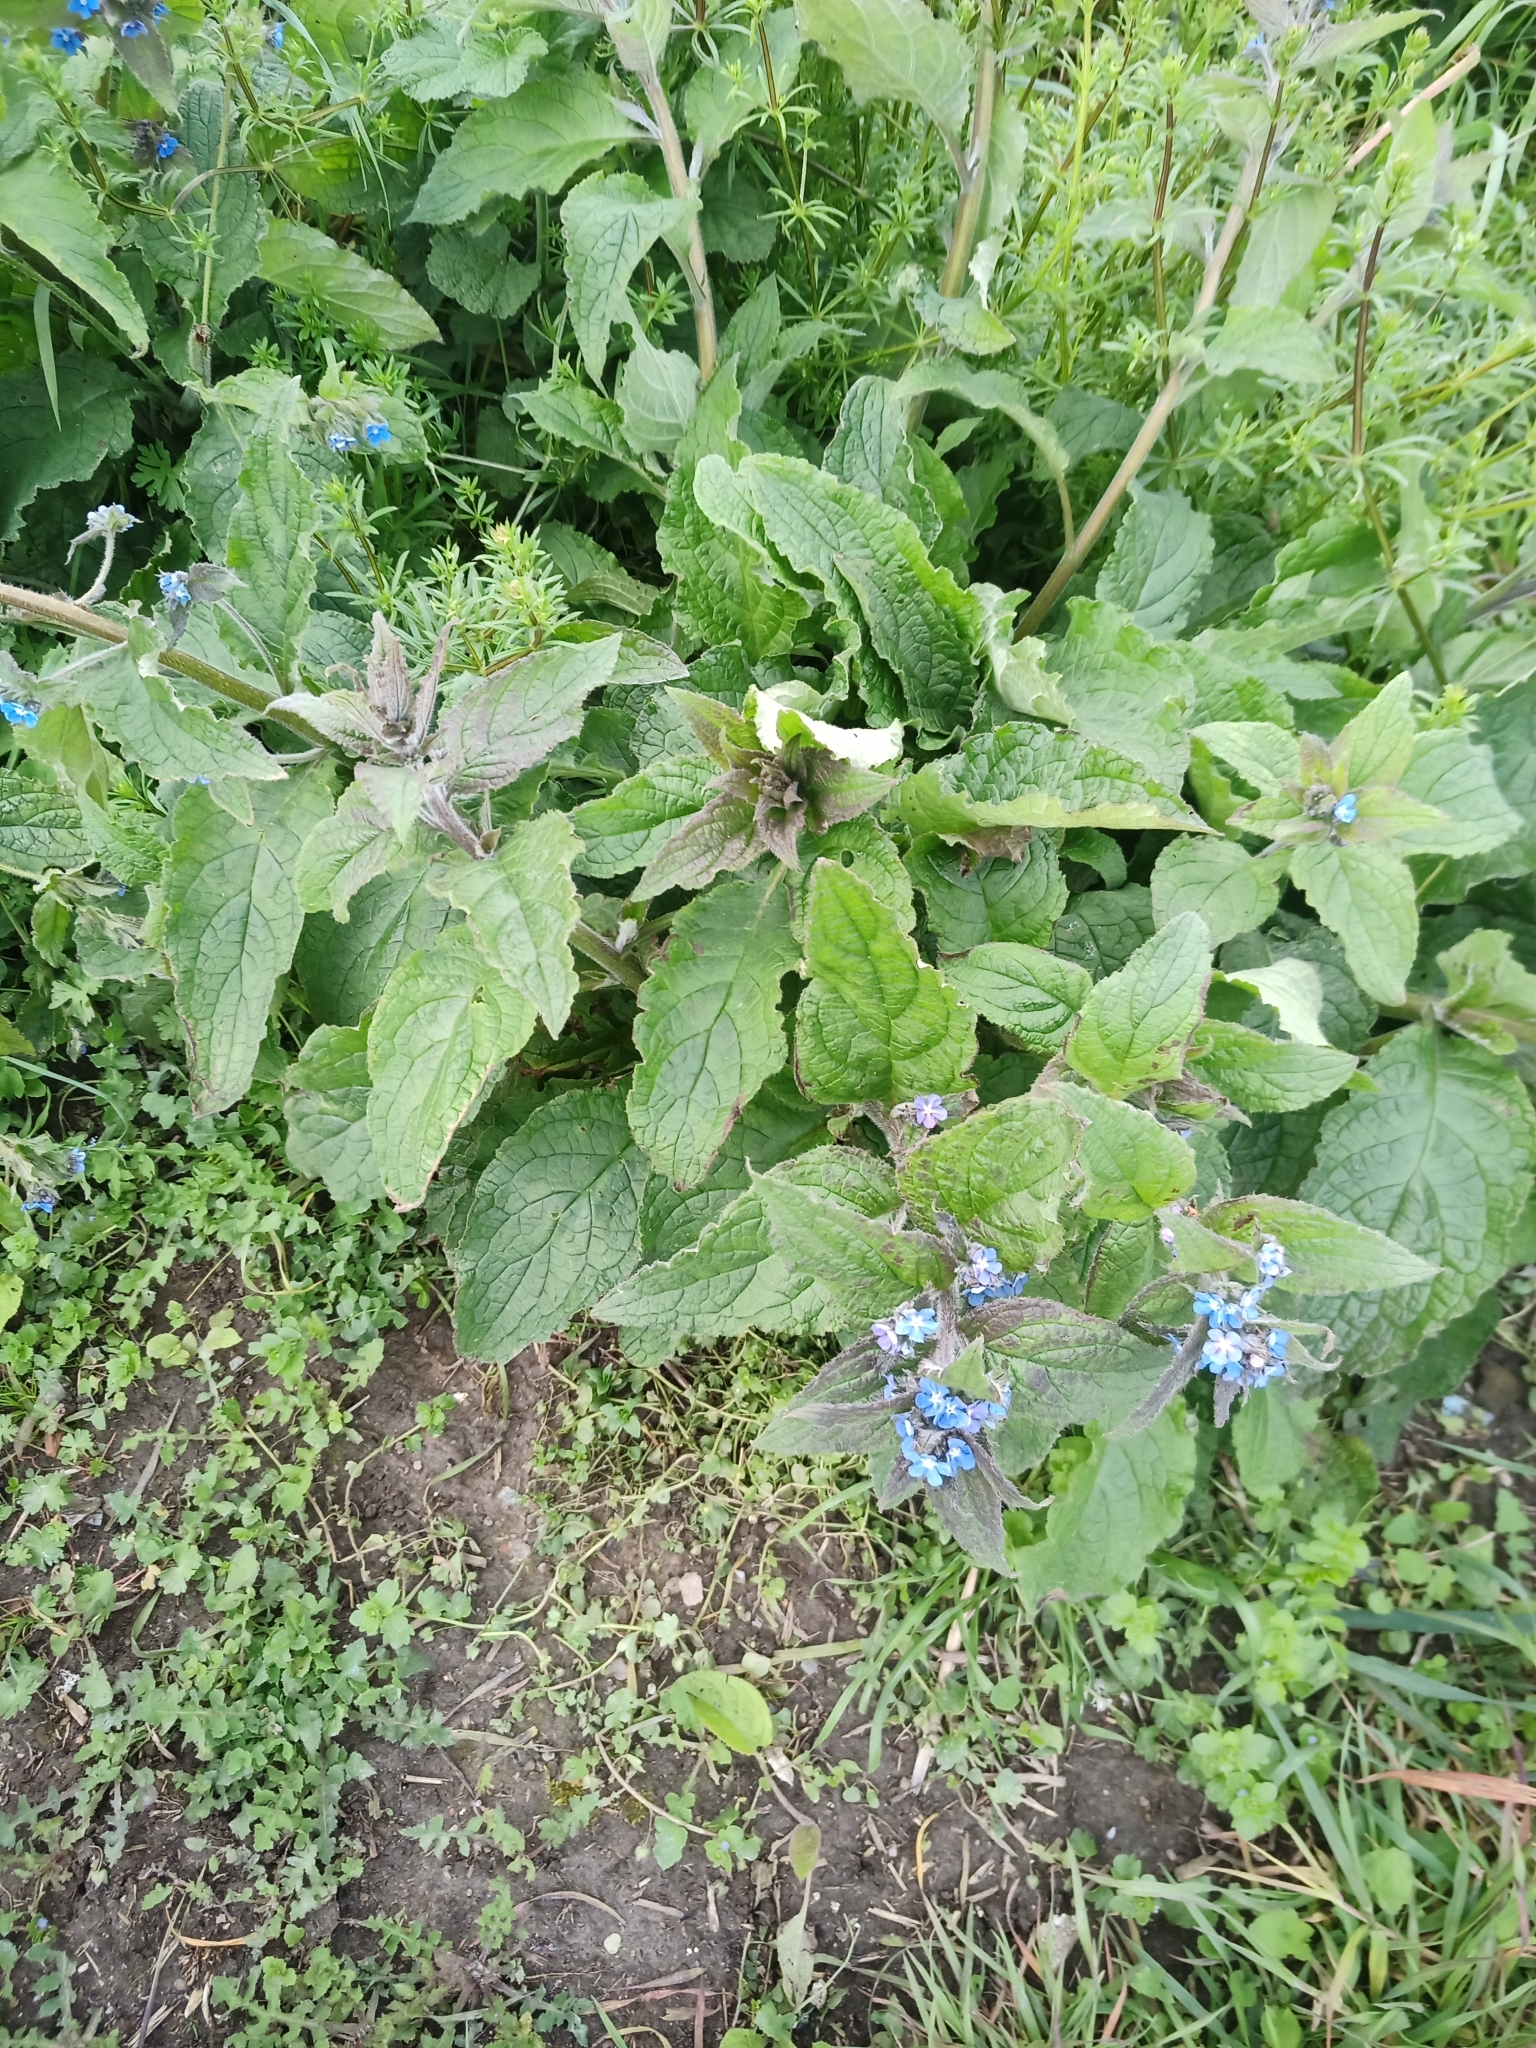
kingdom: Plantae
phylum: Tracheophyta
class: Magnoliopsida
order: Boraginales
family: Boraginaceae
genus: Pentaglottis
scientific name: Pentaglottis sempervirens
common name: Green alkanet
